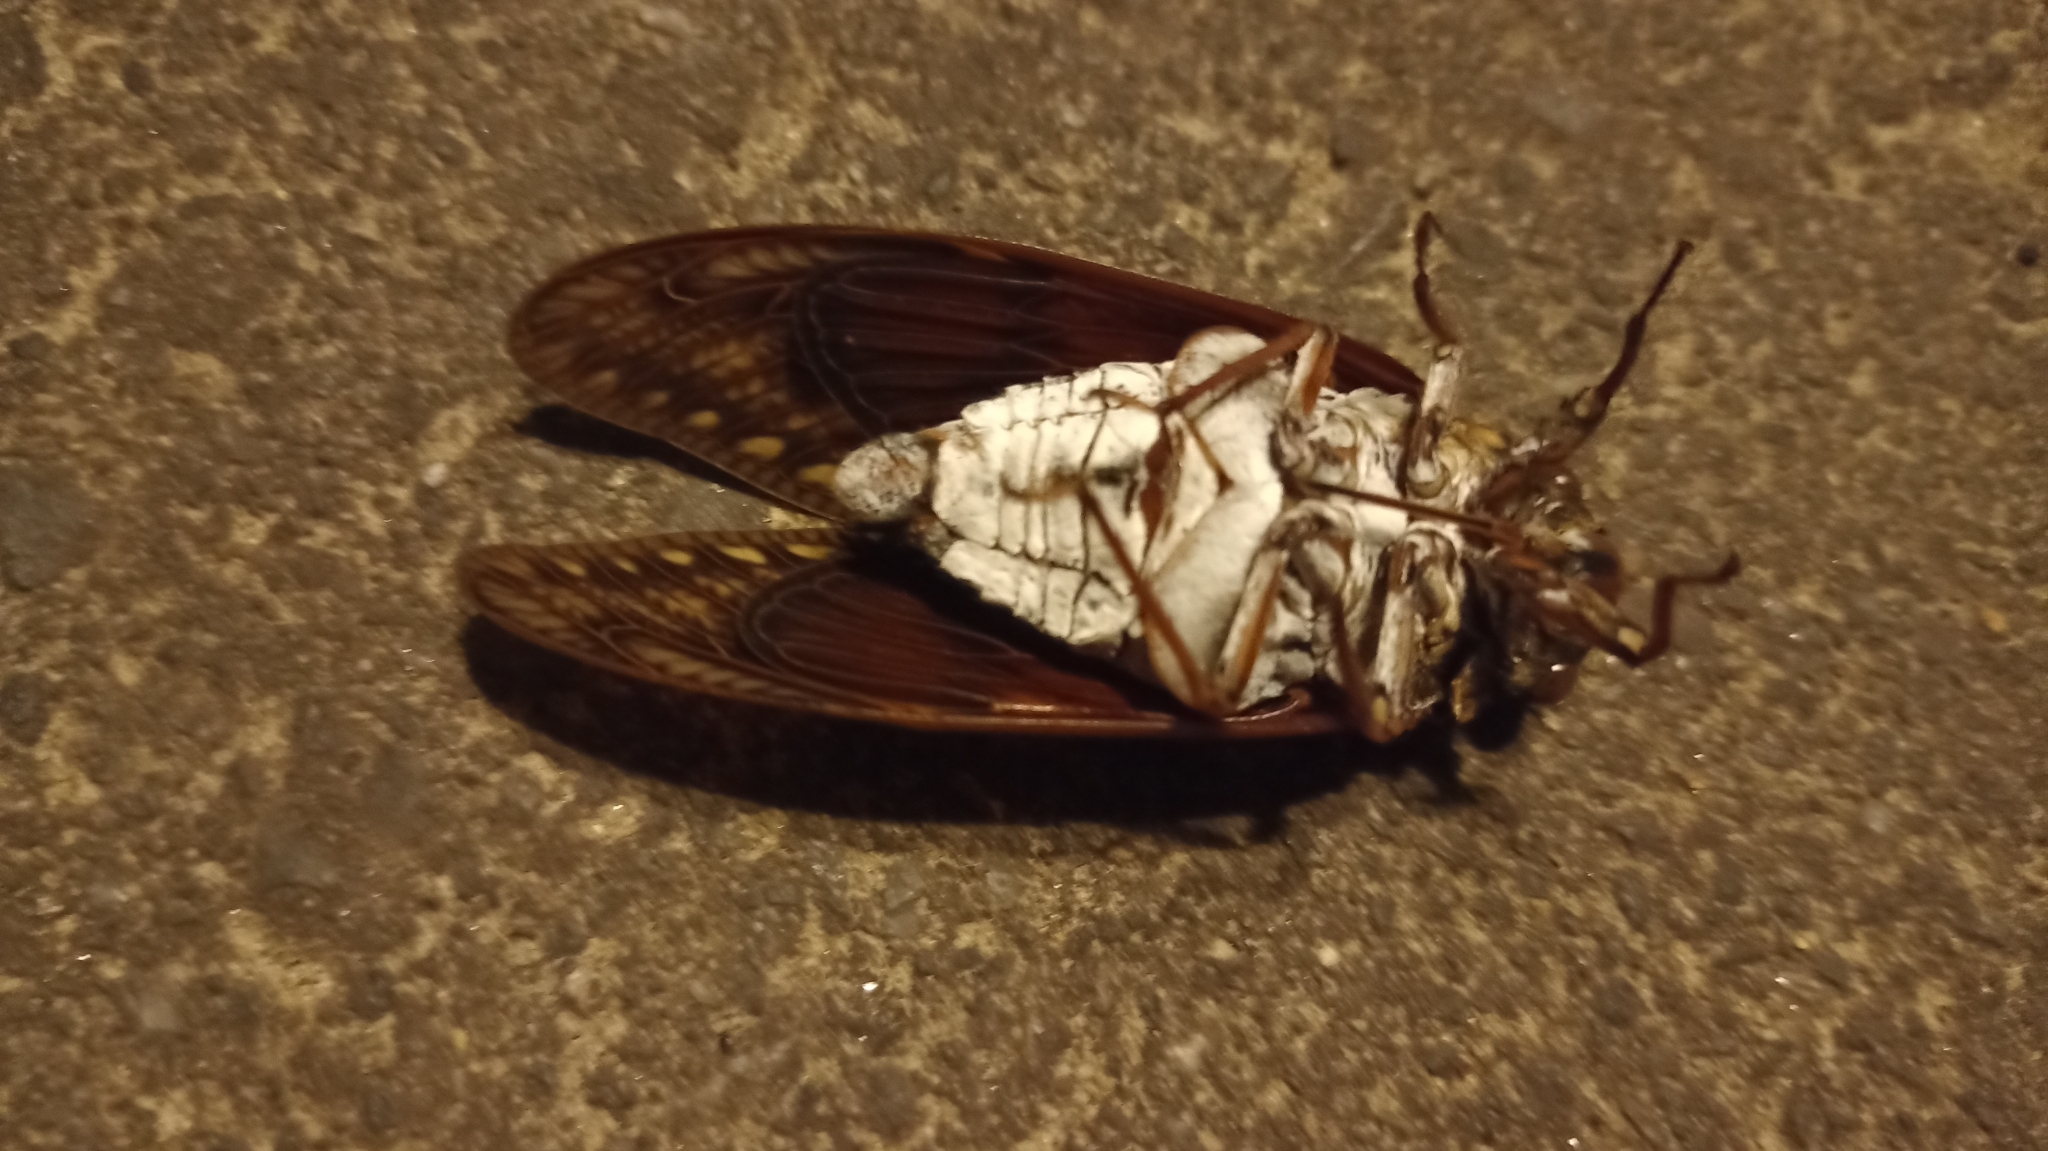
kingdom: Animalia
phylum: Arthropoda
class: Insecta
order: Hemiptera
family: Cicadidae
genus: Graptopsaltria
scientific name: Graptopsaltria nigrofuscata
